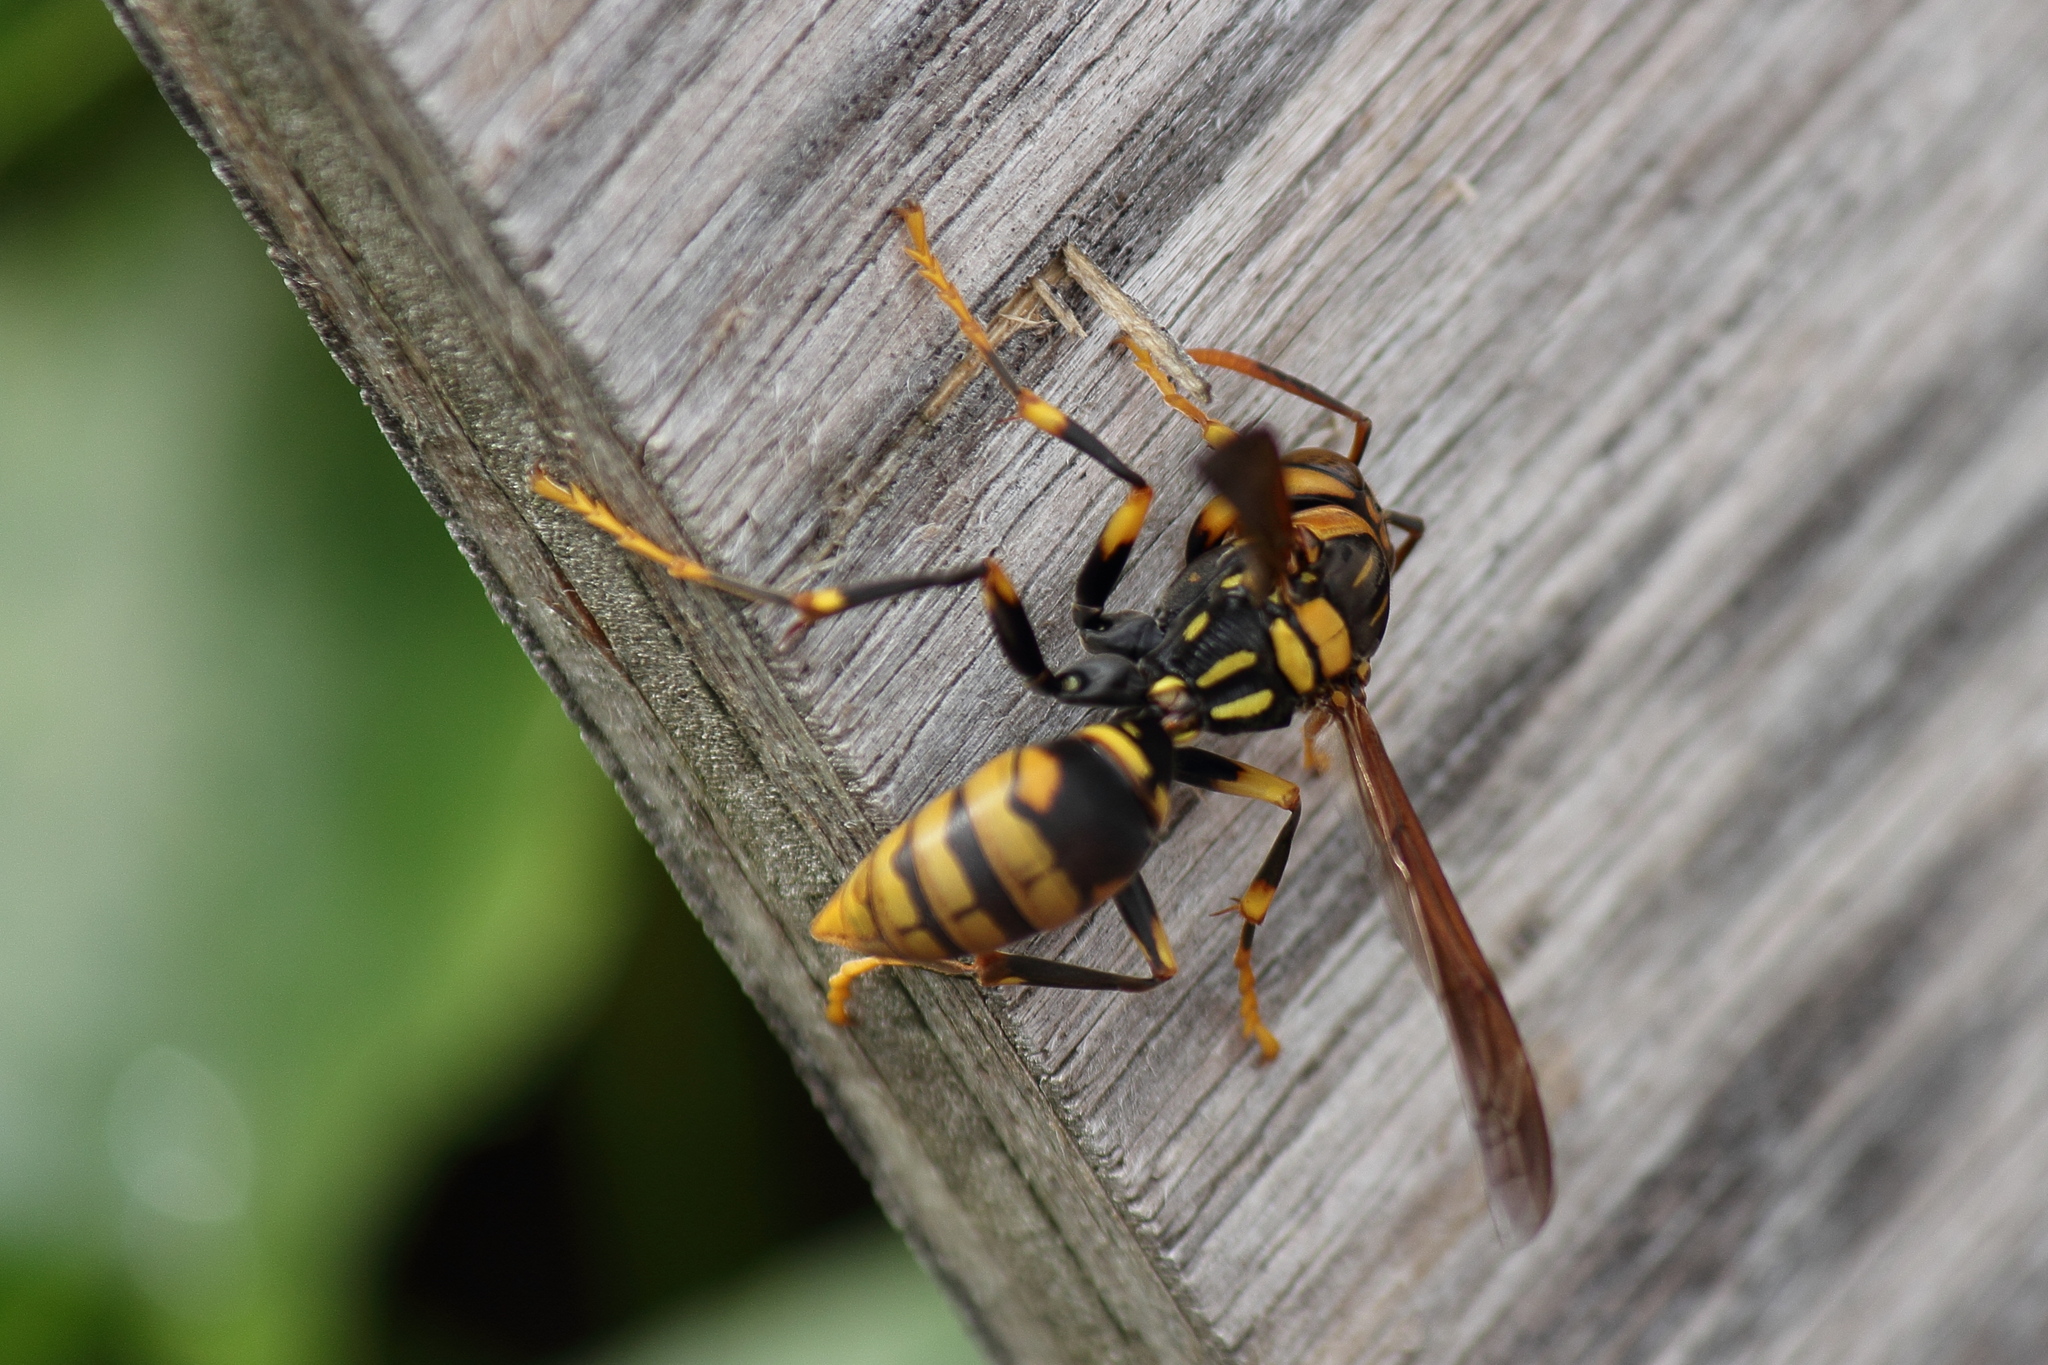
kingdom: Animalia
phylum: Arthropoda
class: Insecta
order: Hymenoptera
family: Eumenidae
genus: Polistes
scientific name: Polistes rothneyi
